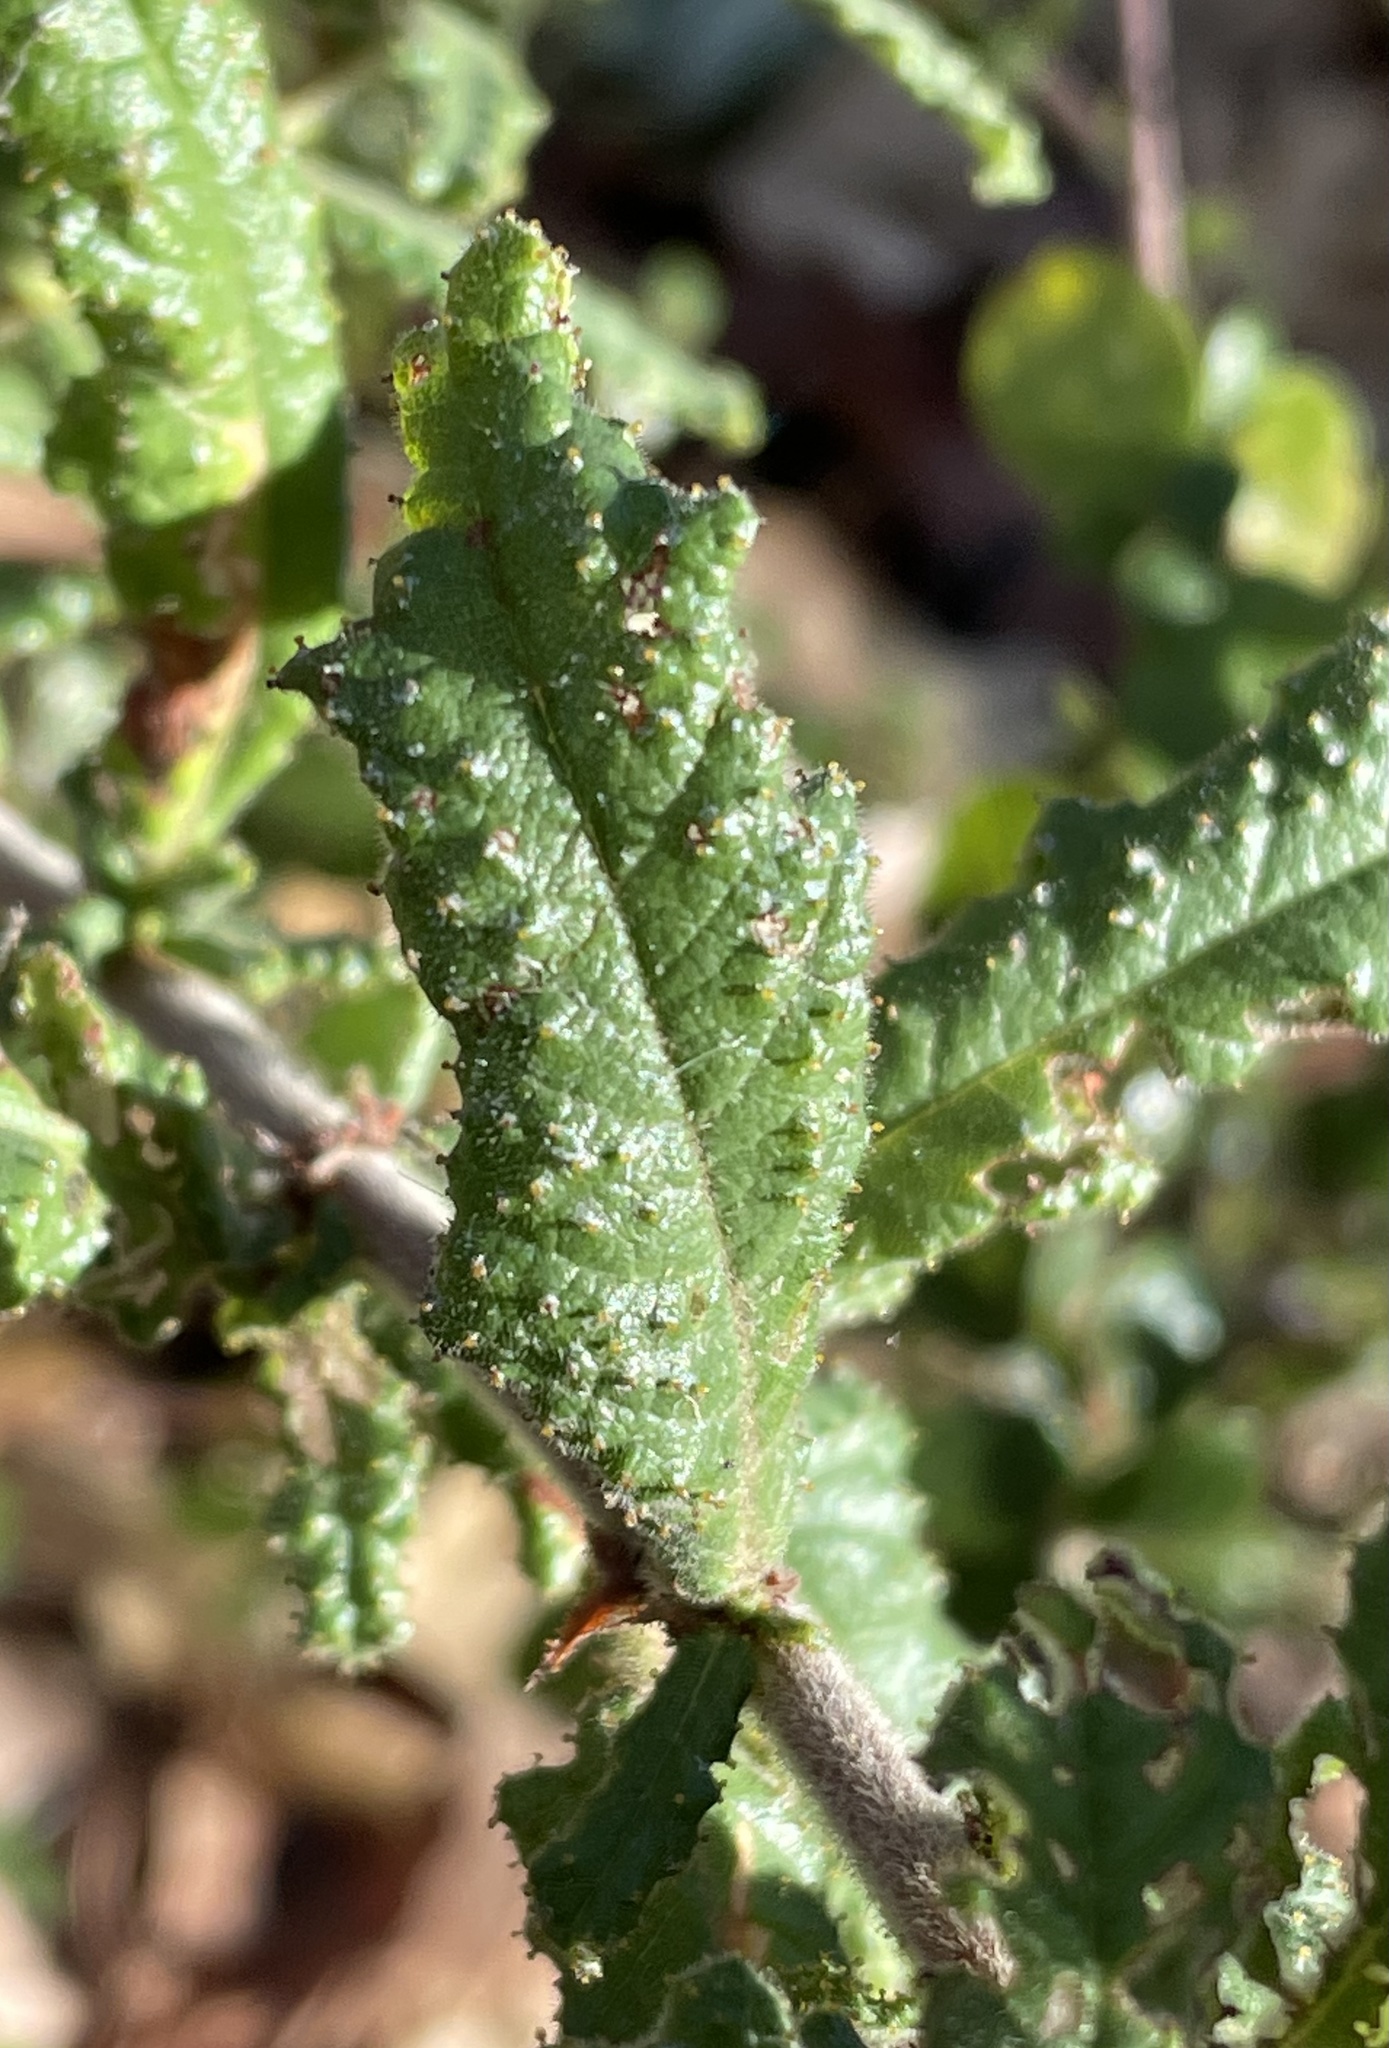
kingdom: Plantae
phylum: Tracheophyta
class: Magnoliopsida
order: Rosales
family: Rhamnaceae
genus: Ceanothus
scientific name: Ceanothus papillosus
